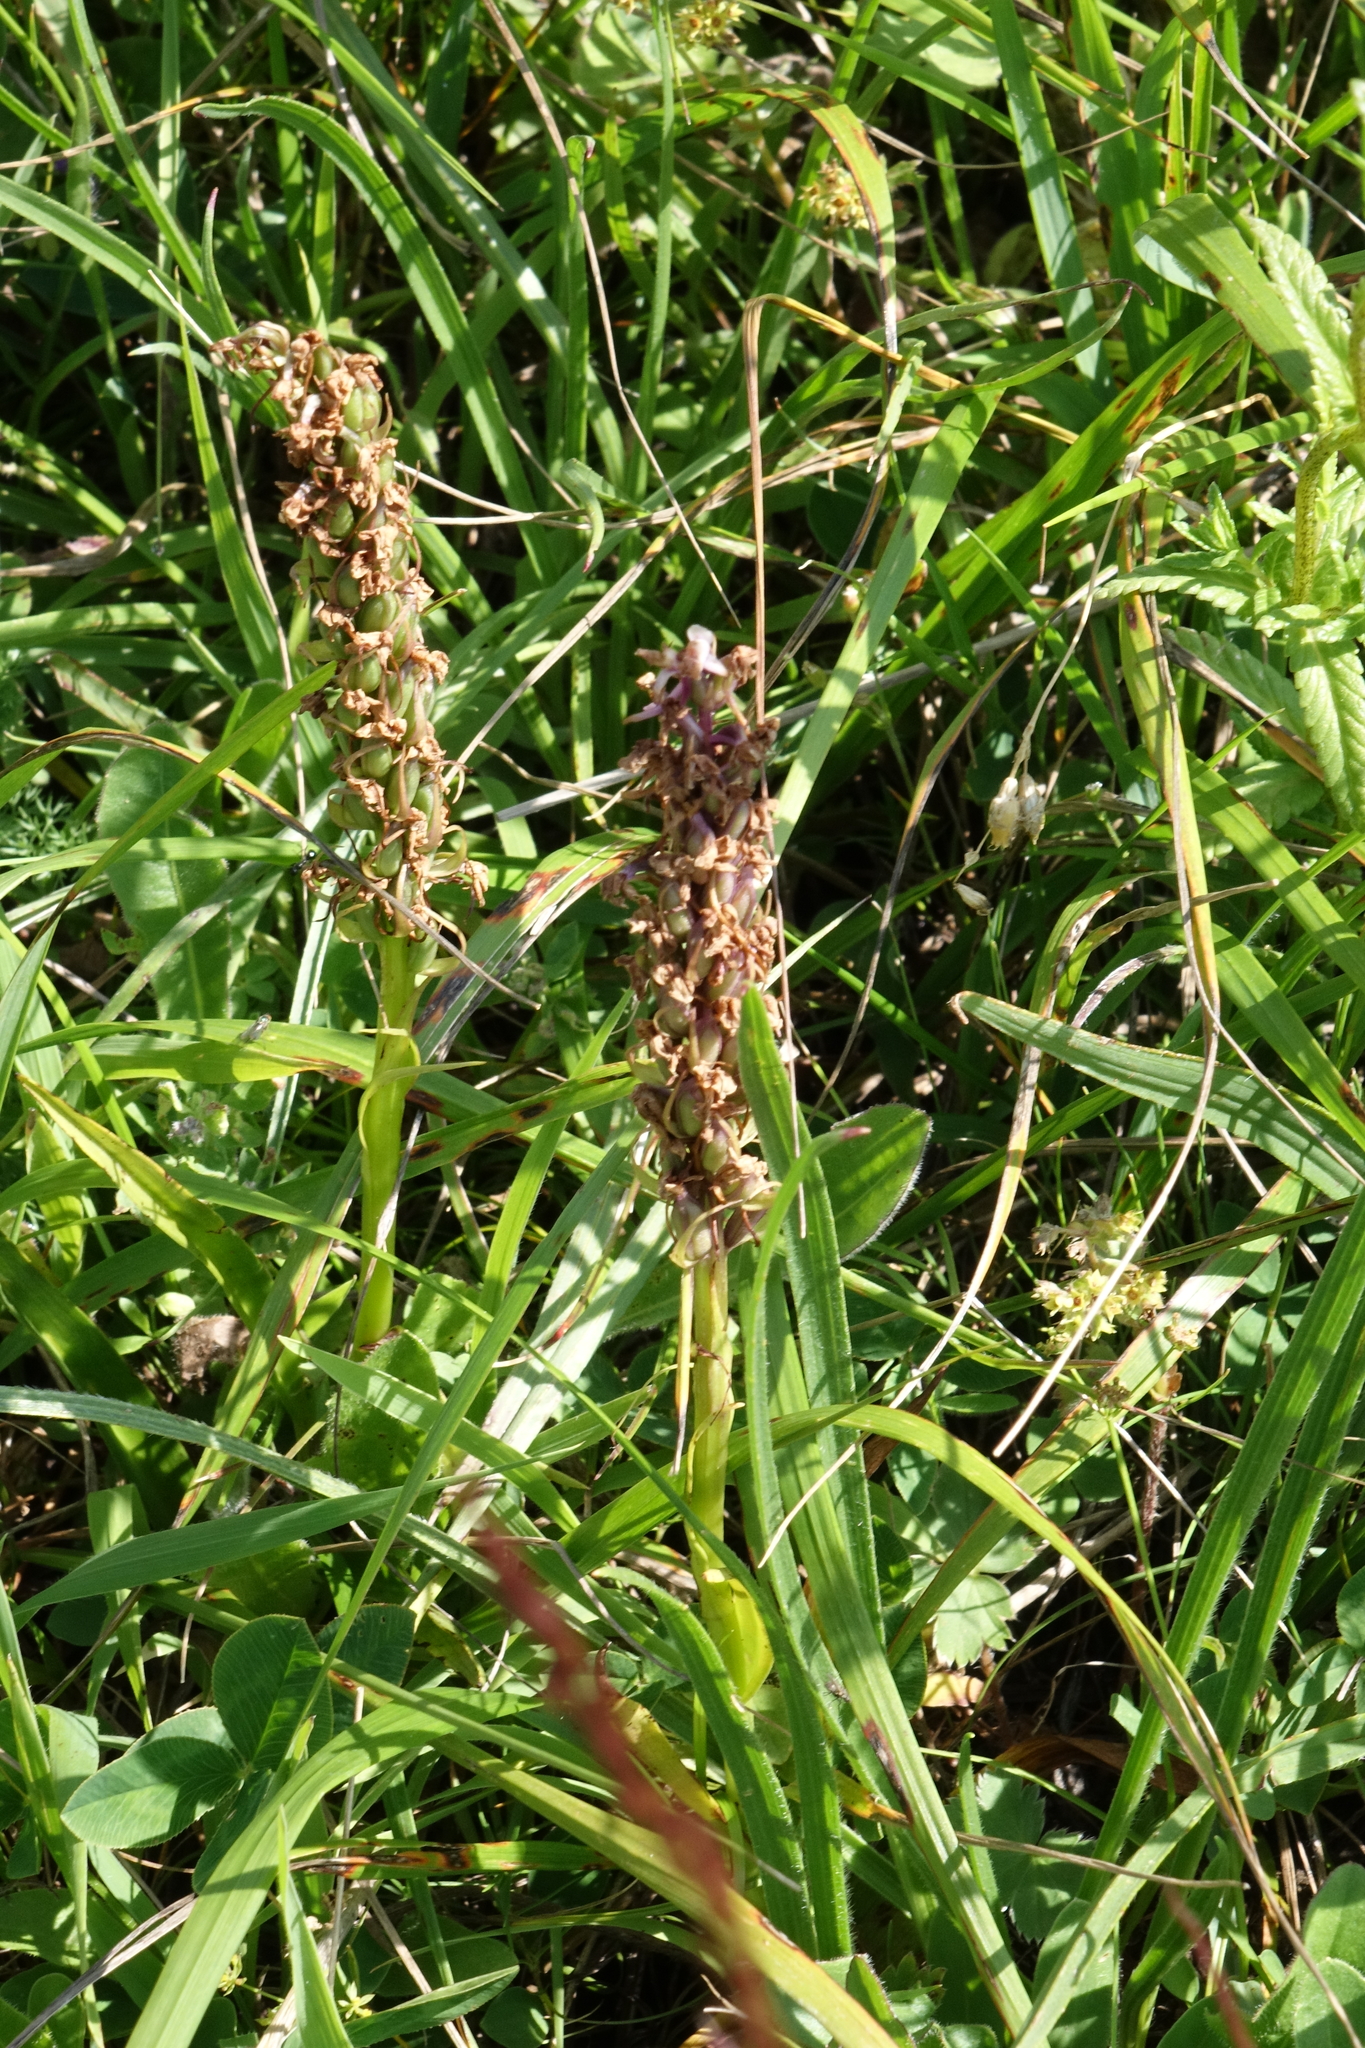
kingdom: Plantae
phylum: Tracheophyta
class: Liliopsida
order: Asparagales
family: Orchidaceae
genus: Gymnadenia
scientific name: Gymnadenia conopsea
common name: Fragrant orchid
